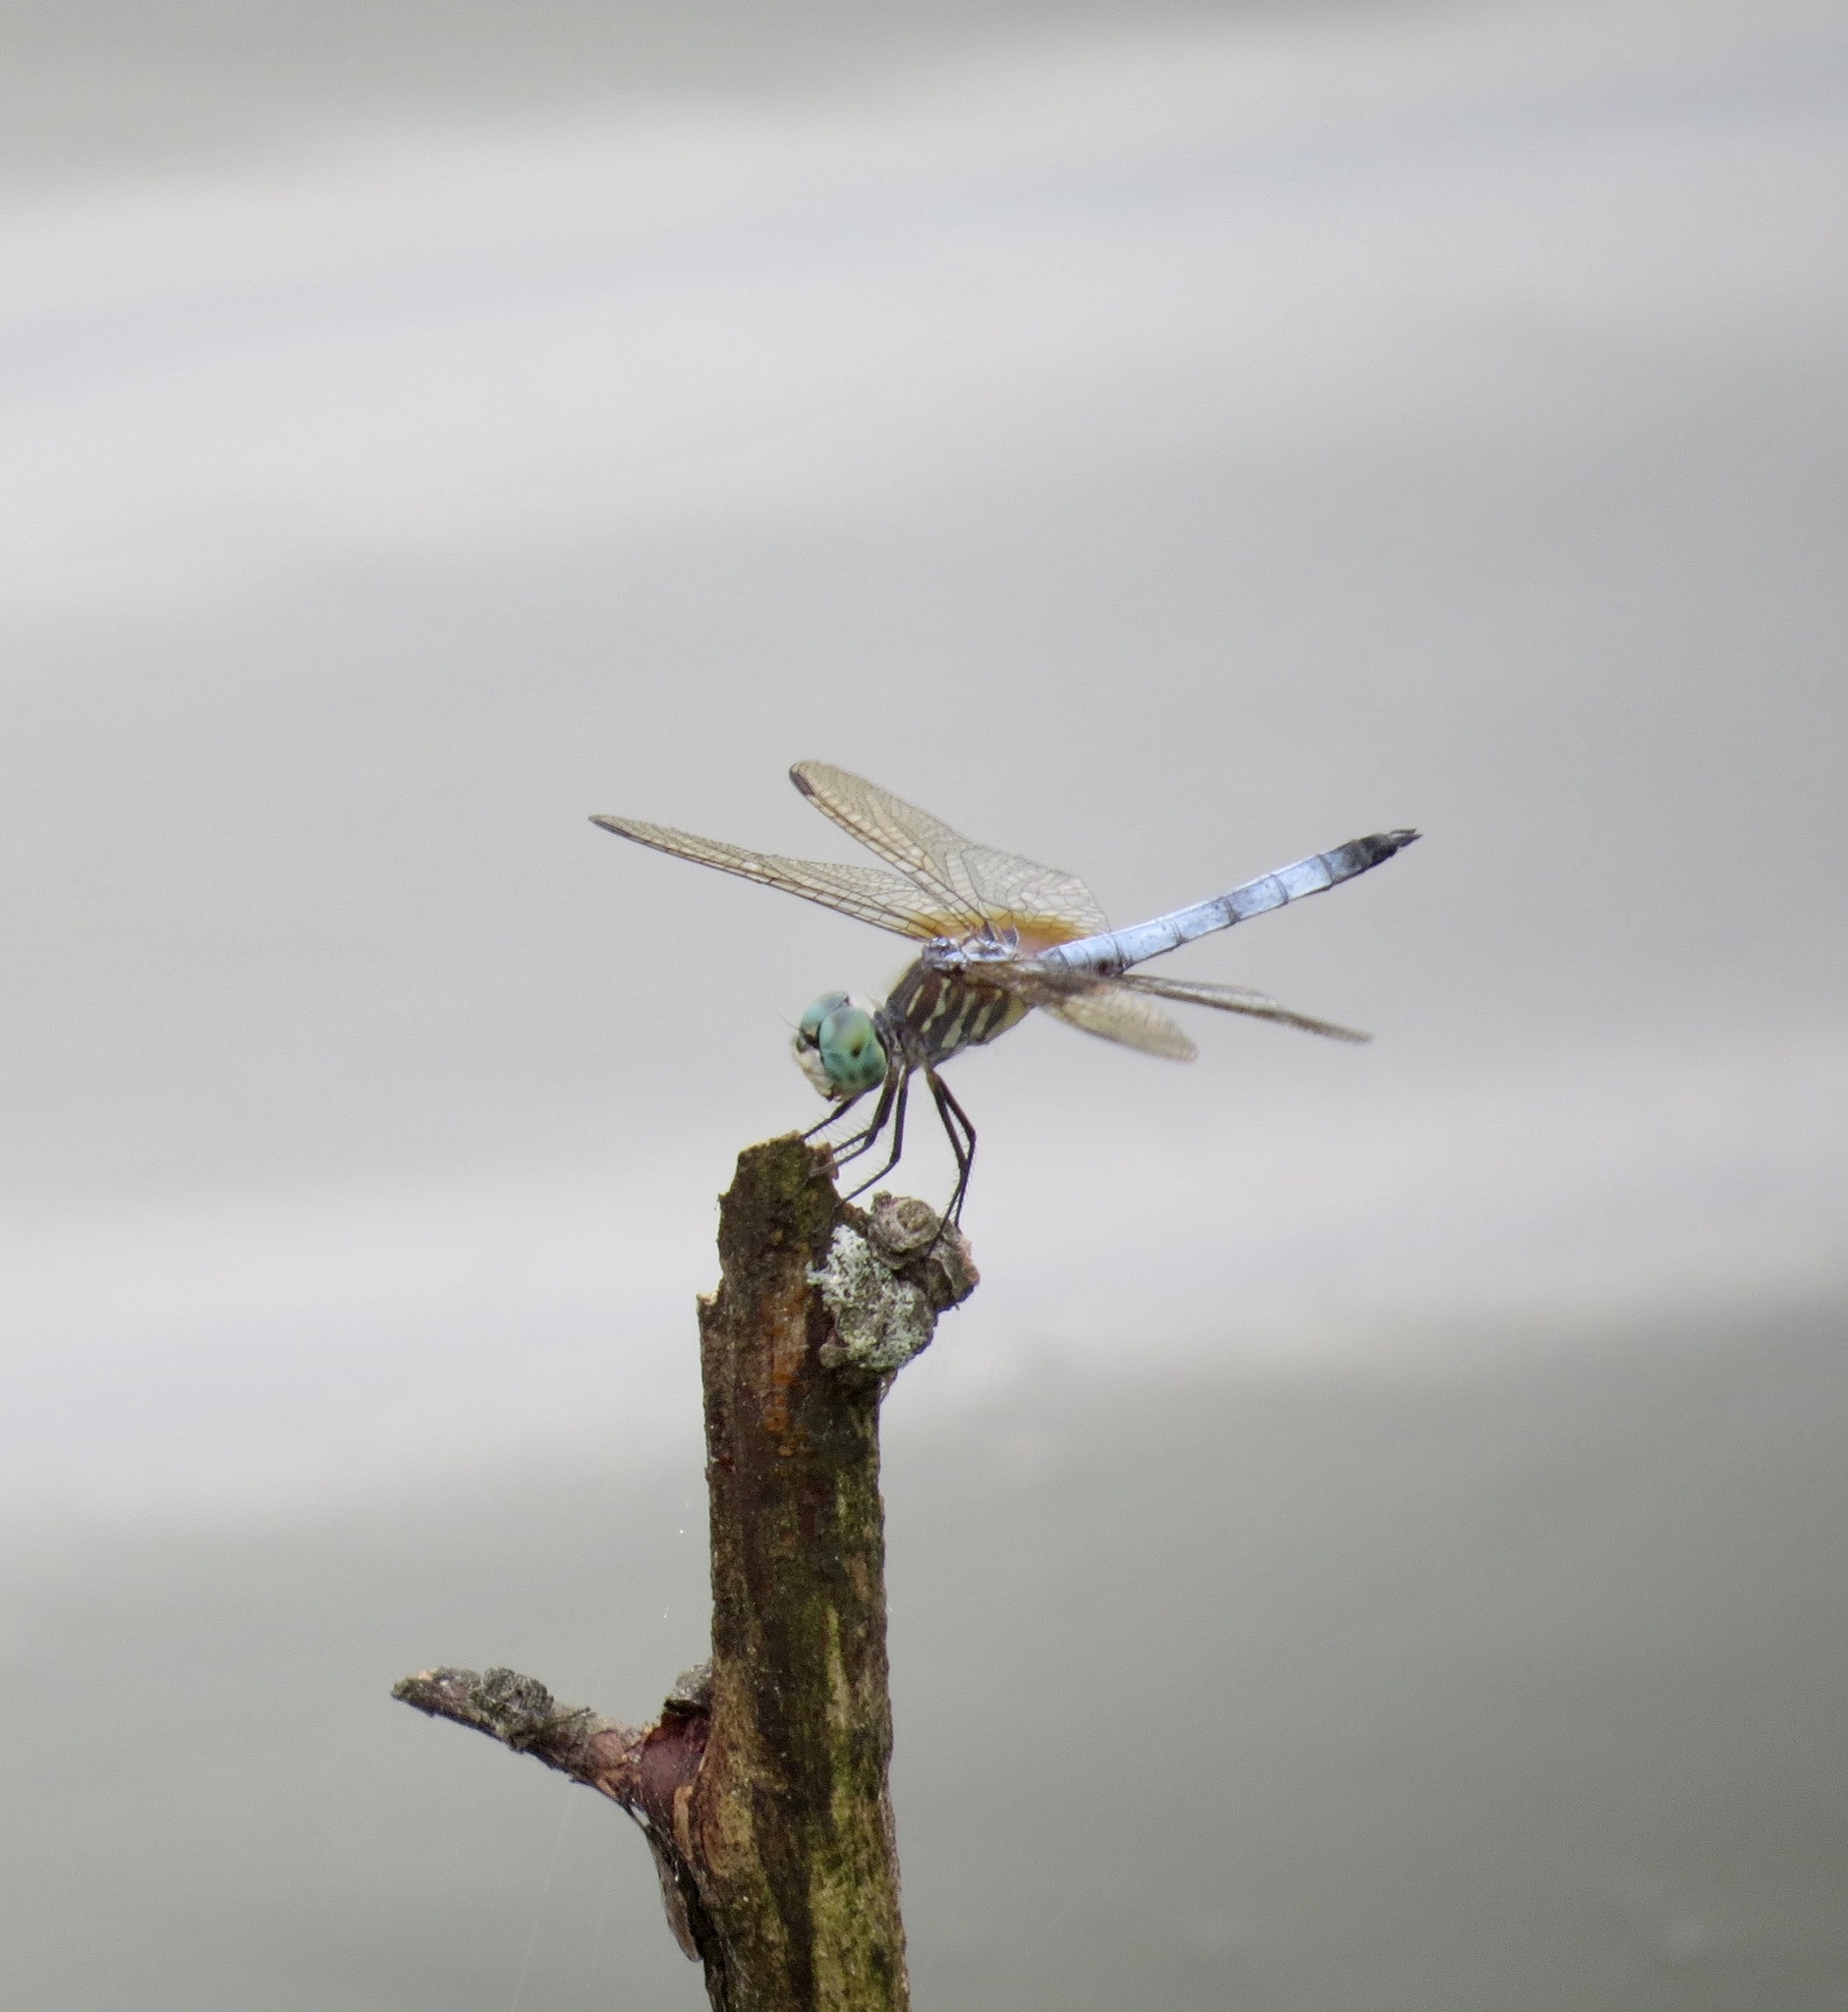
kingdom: Animalia
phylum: Arthropoda
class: Insecta
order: Odonata
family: Libellulidae
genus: Pachydiplax
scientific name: Pachydiplax longipennis
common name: Blue dasher
